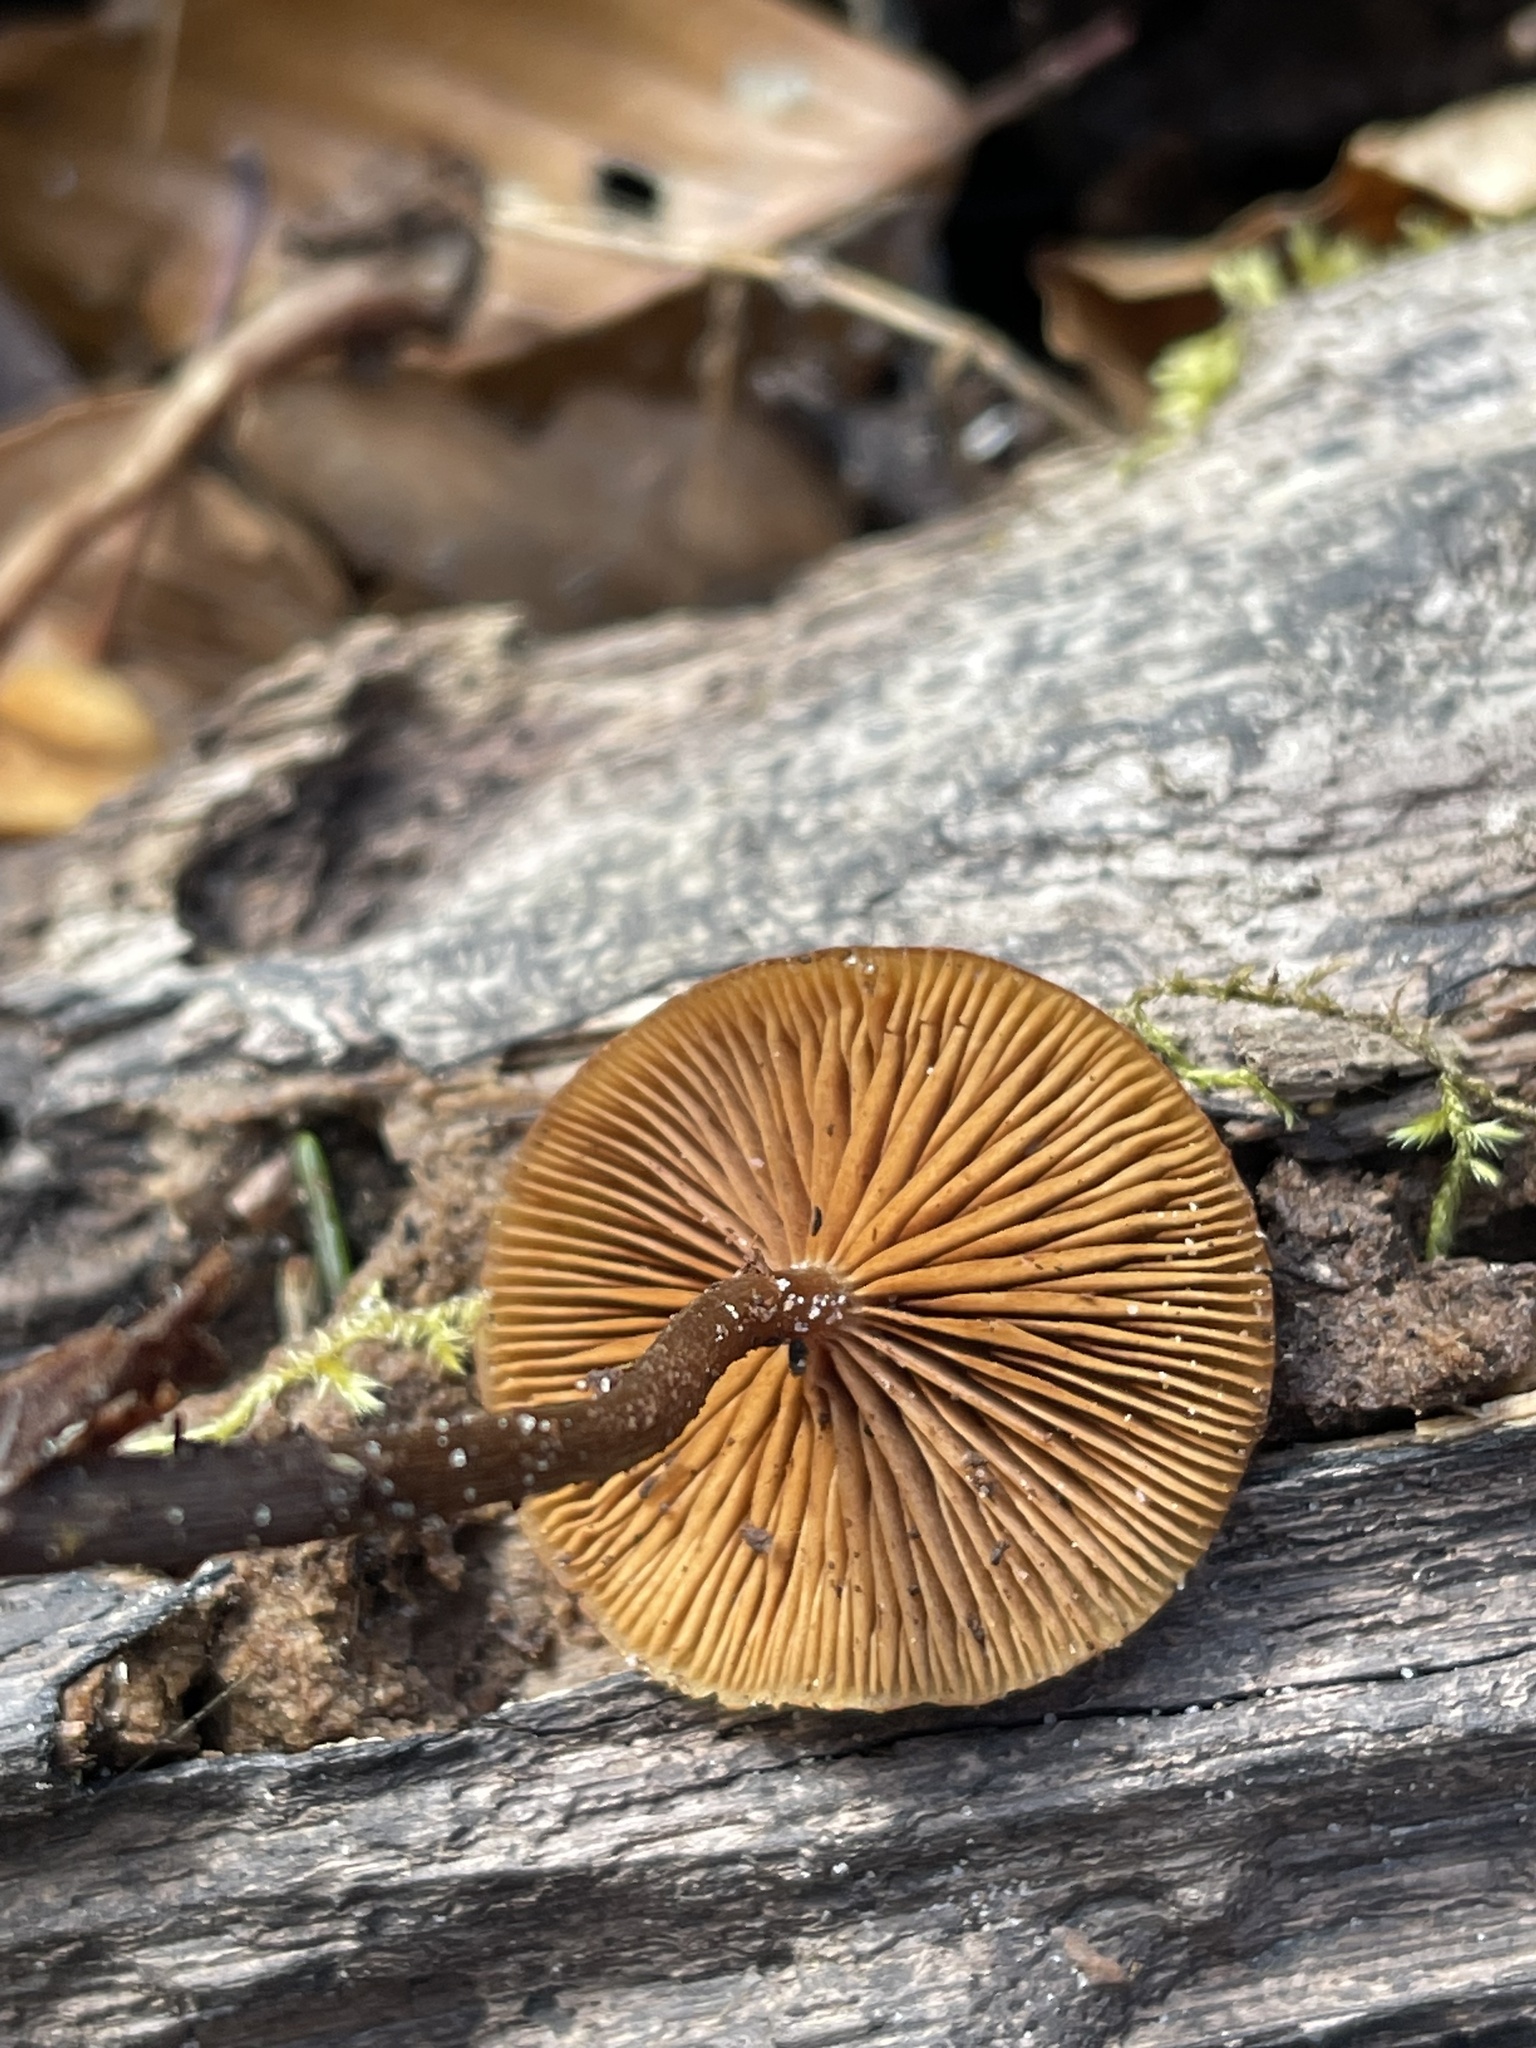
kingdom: Fungi
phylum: Basidiomycota
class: Agaricomycetes
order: Agaricales
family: Hymenogastraceae
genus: Galerina
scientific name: Galerina marginata
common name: Funeral bell
